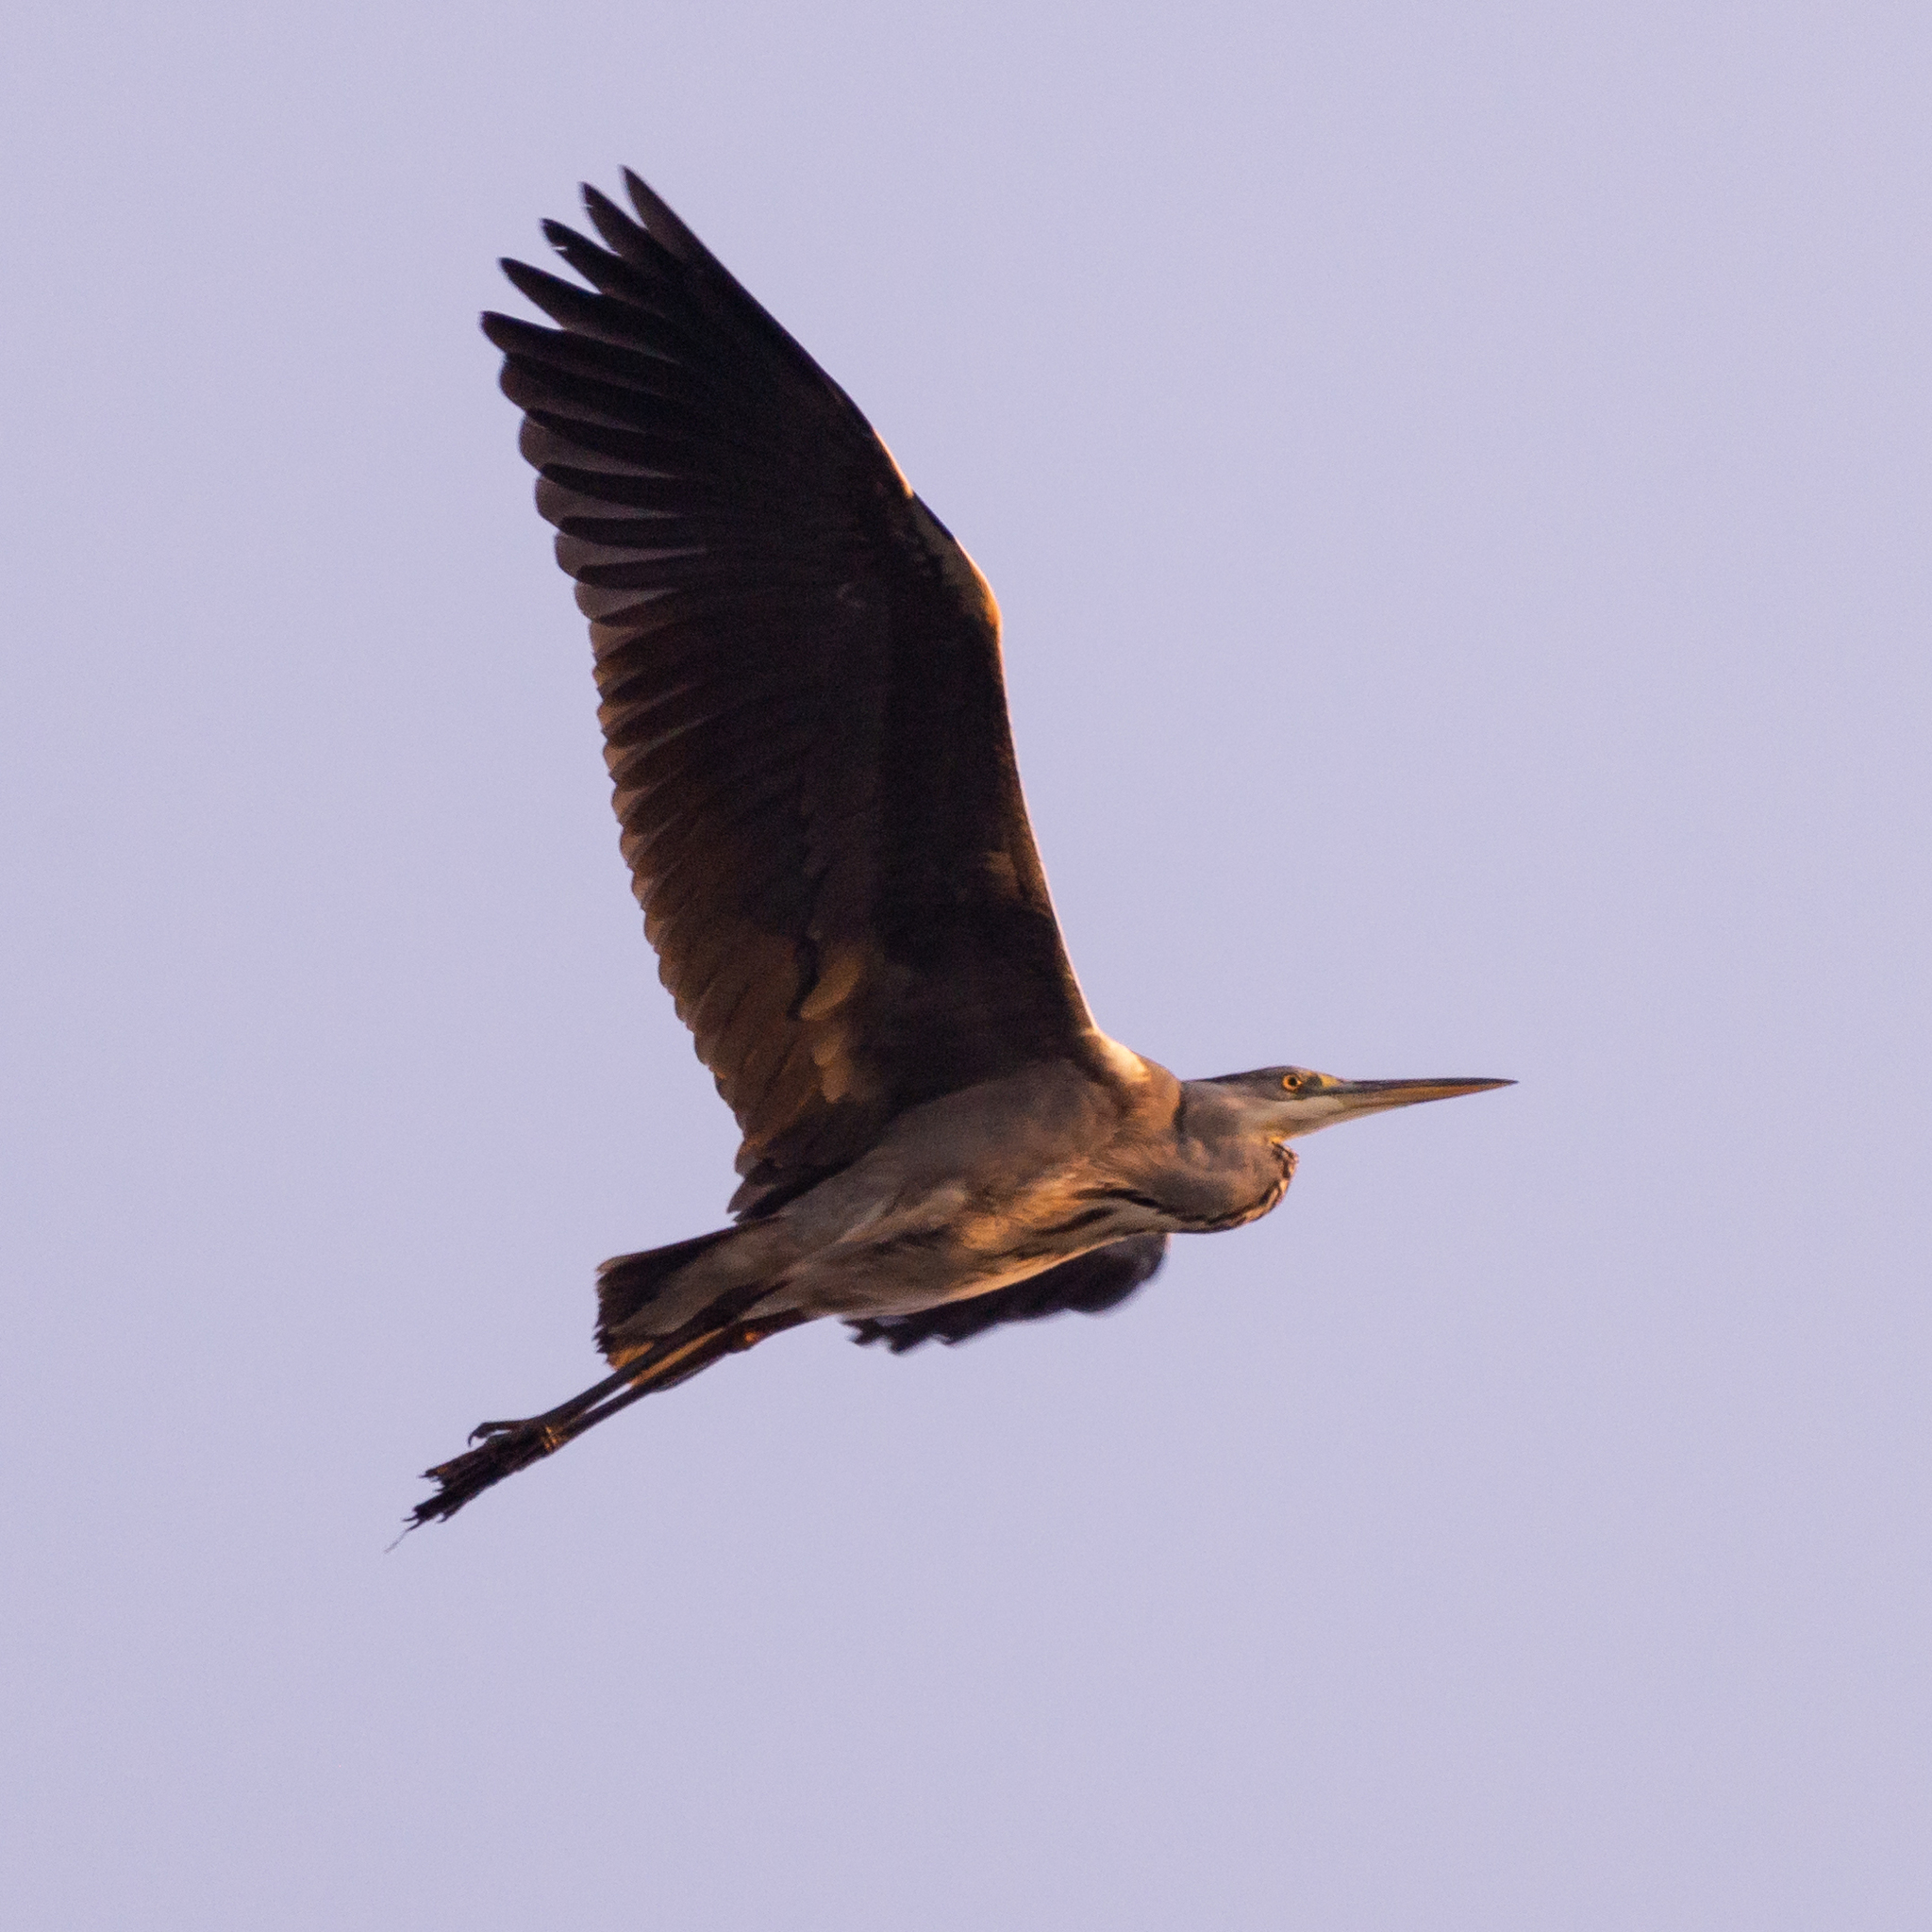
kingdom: Animalia
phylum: Chordata
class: Aves
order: Pelecaniformes
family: Ardeidae
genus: Ardea
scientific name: Ardea cinerea
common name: Grey heron
